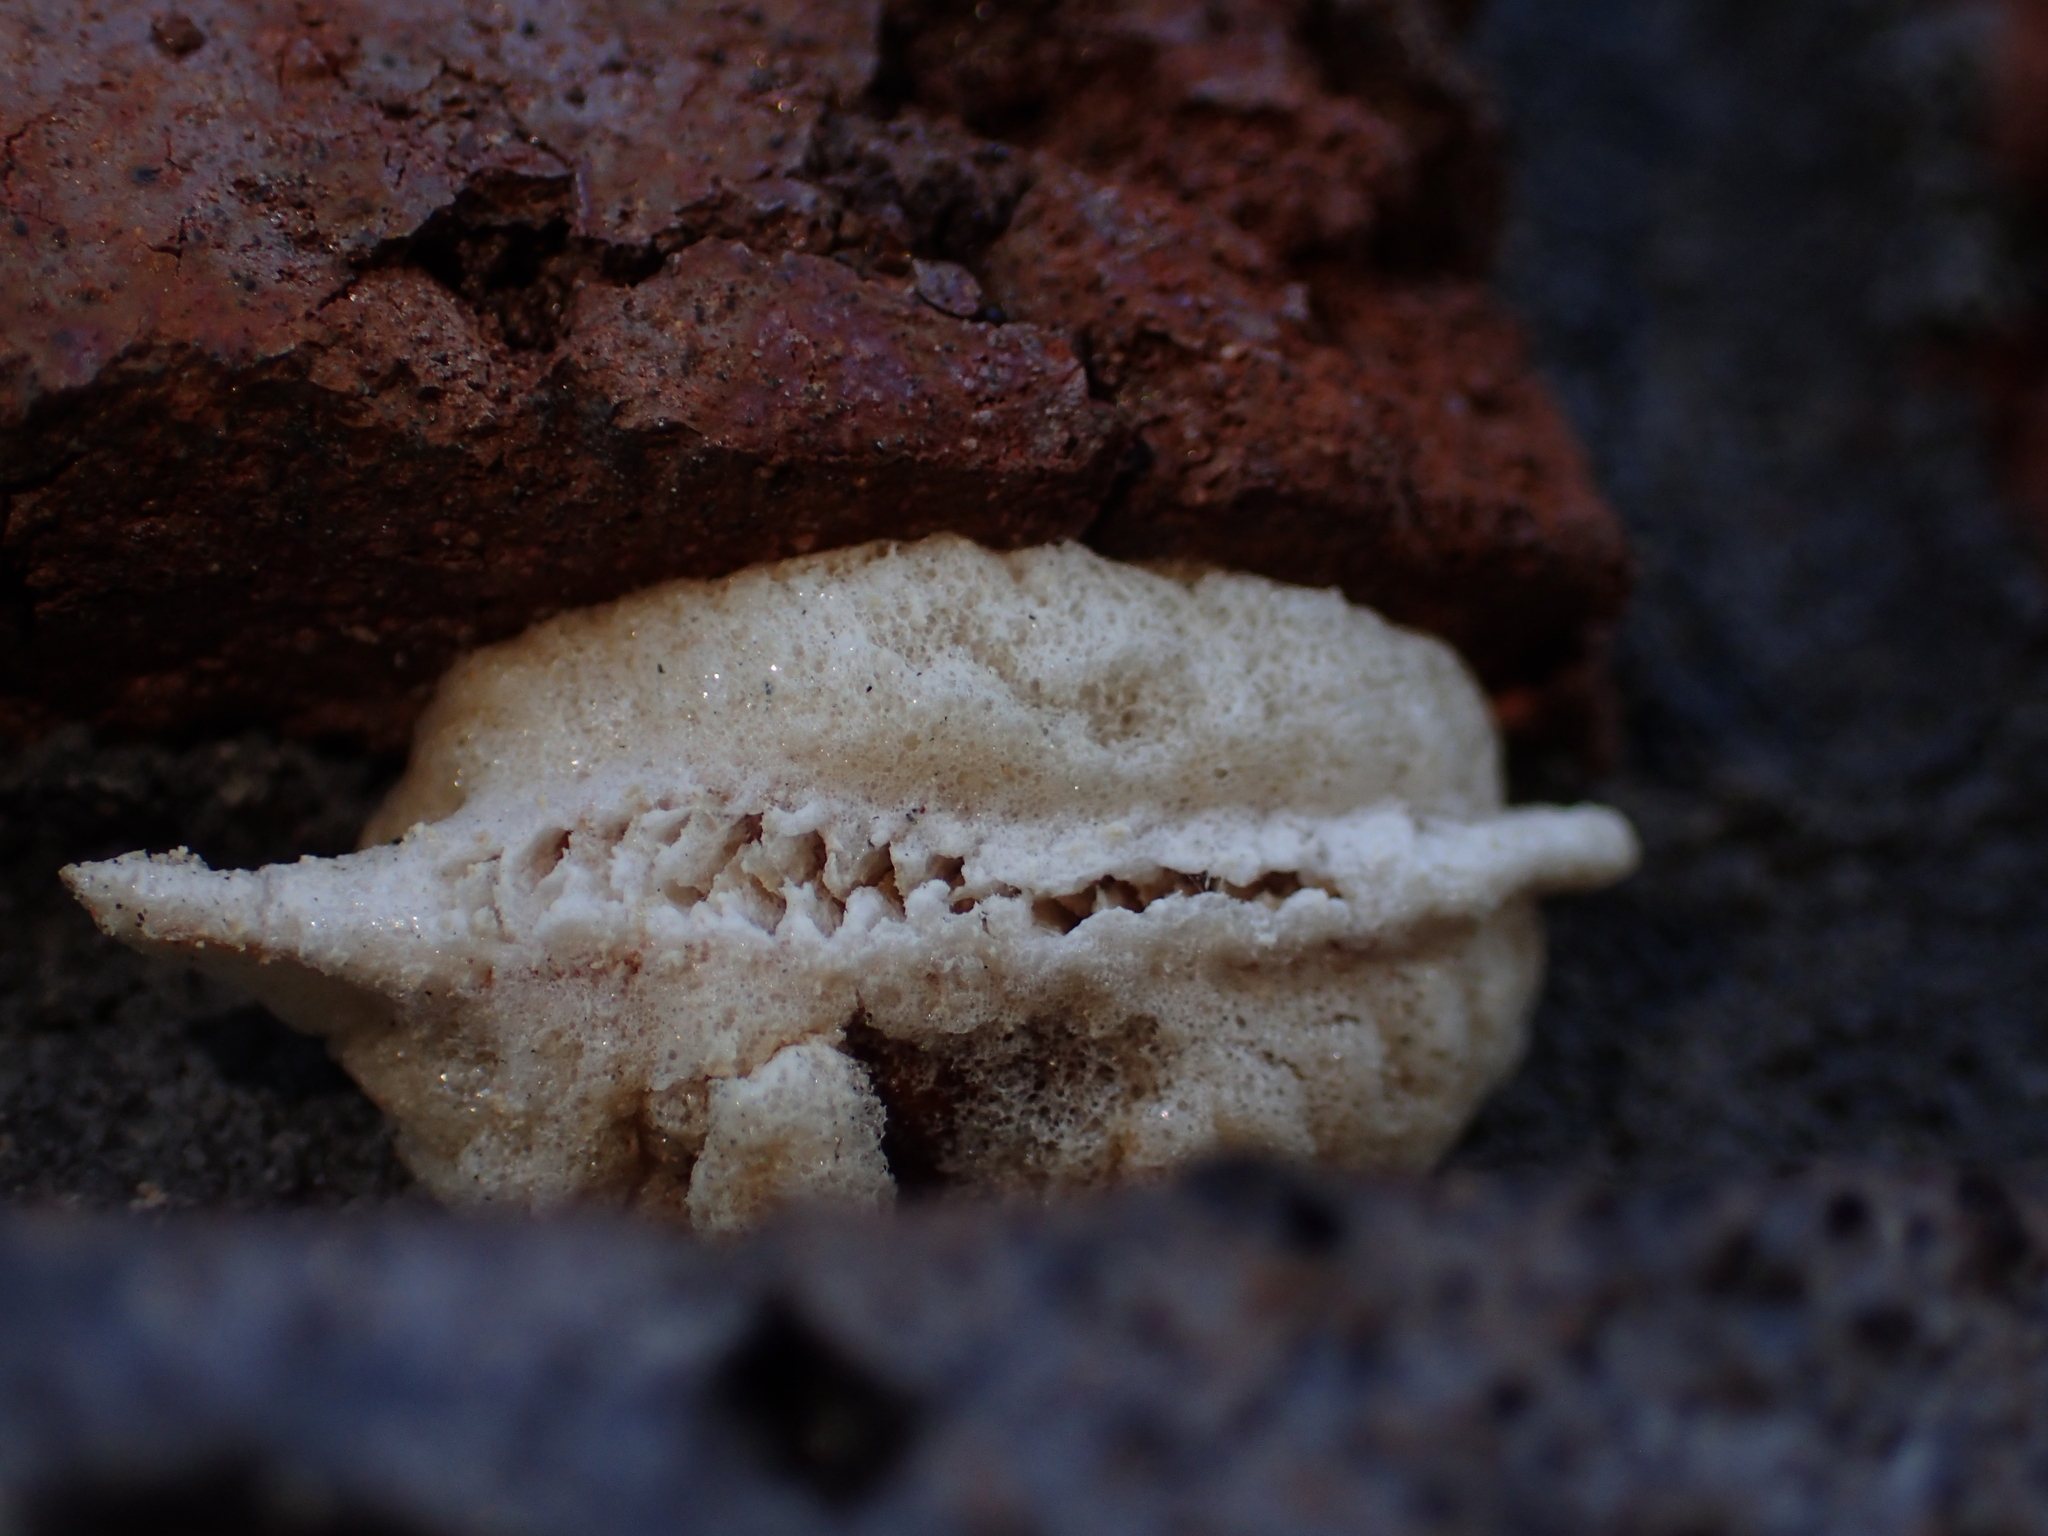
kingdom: Animalia
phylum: Arthropoda
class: Insecta
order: Mantodea
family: Miomantidae
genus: Miomantis
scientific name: Miomantis caffra
